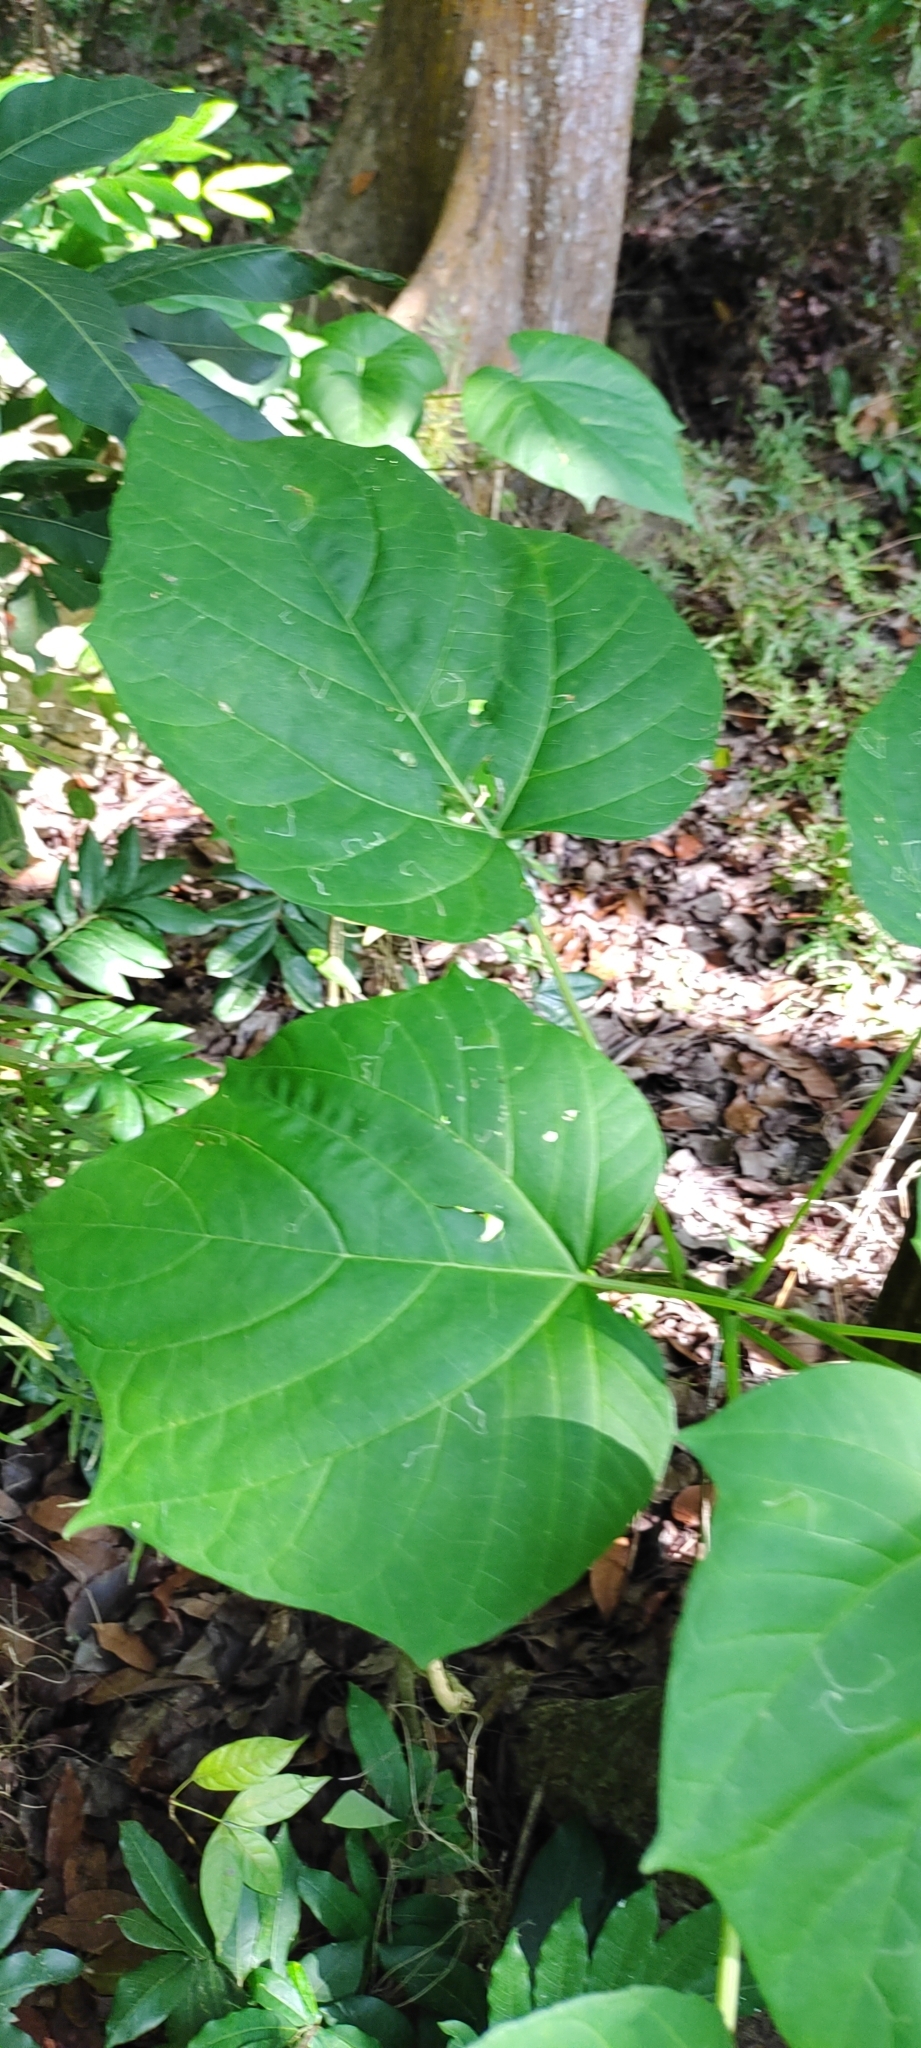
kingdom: Plantae
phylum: Tracheophyta
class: Magnoliopsida
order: Lamiales
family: Lamiaceae
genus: Clerodendrum
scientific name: Clerodendrum japonicum
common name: Japanese glorybower
